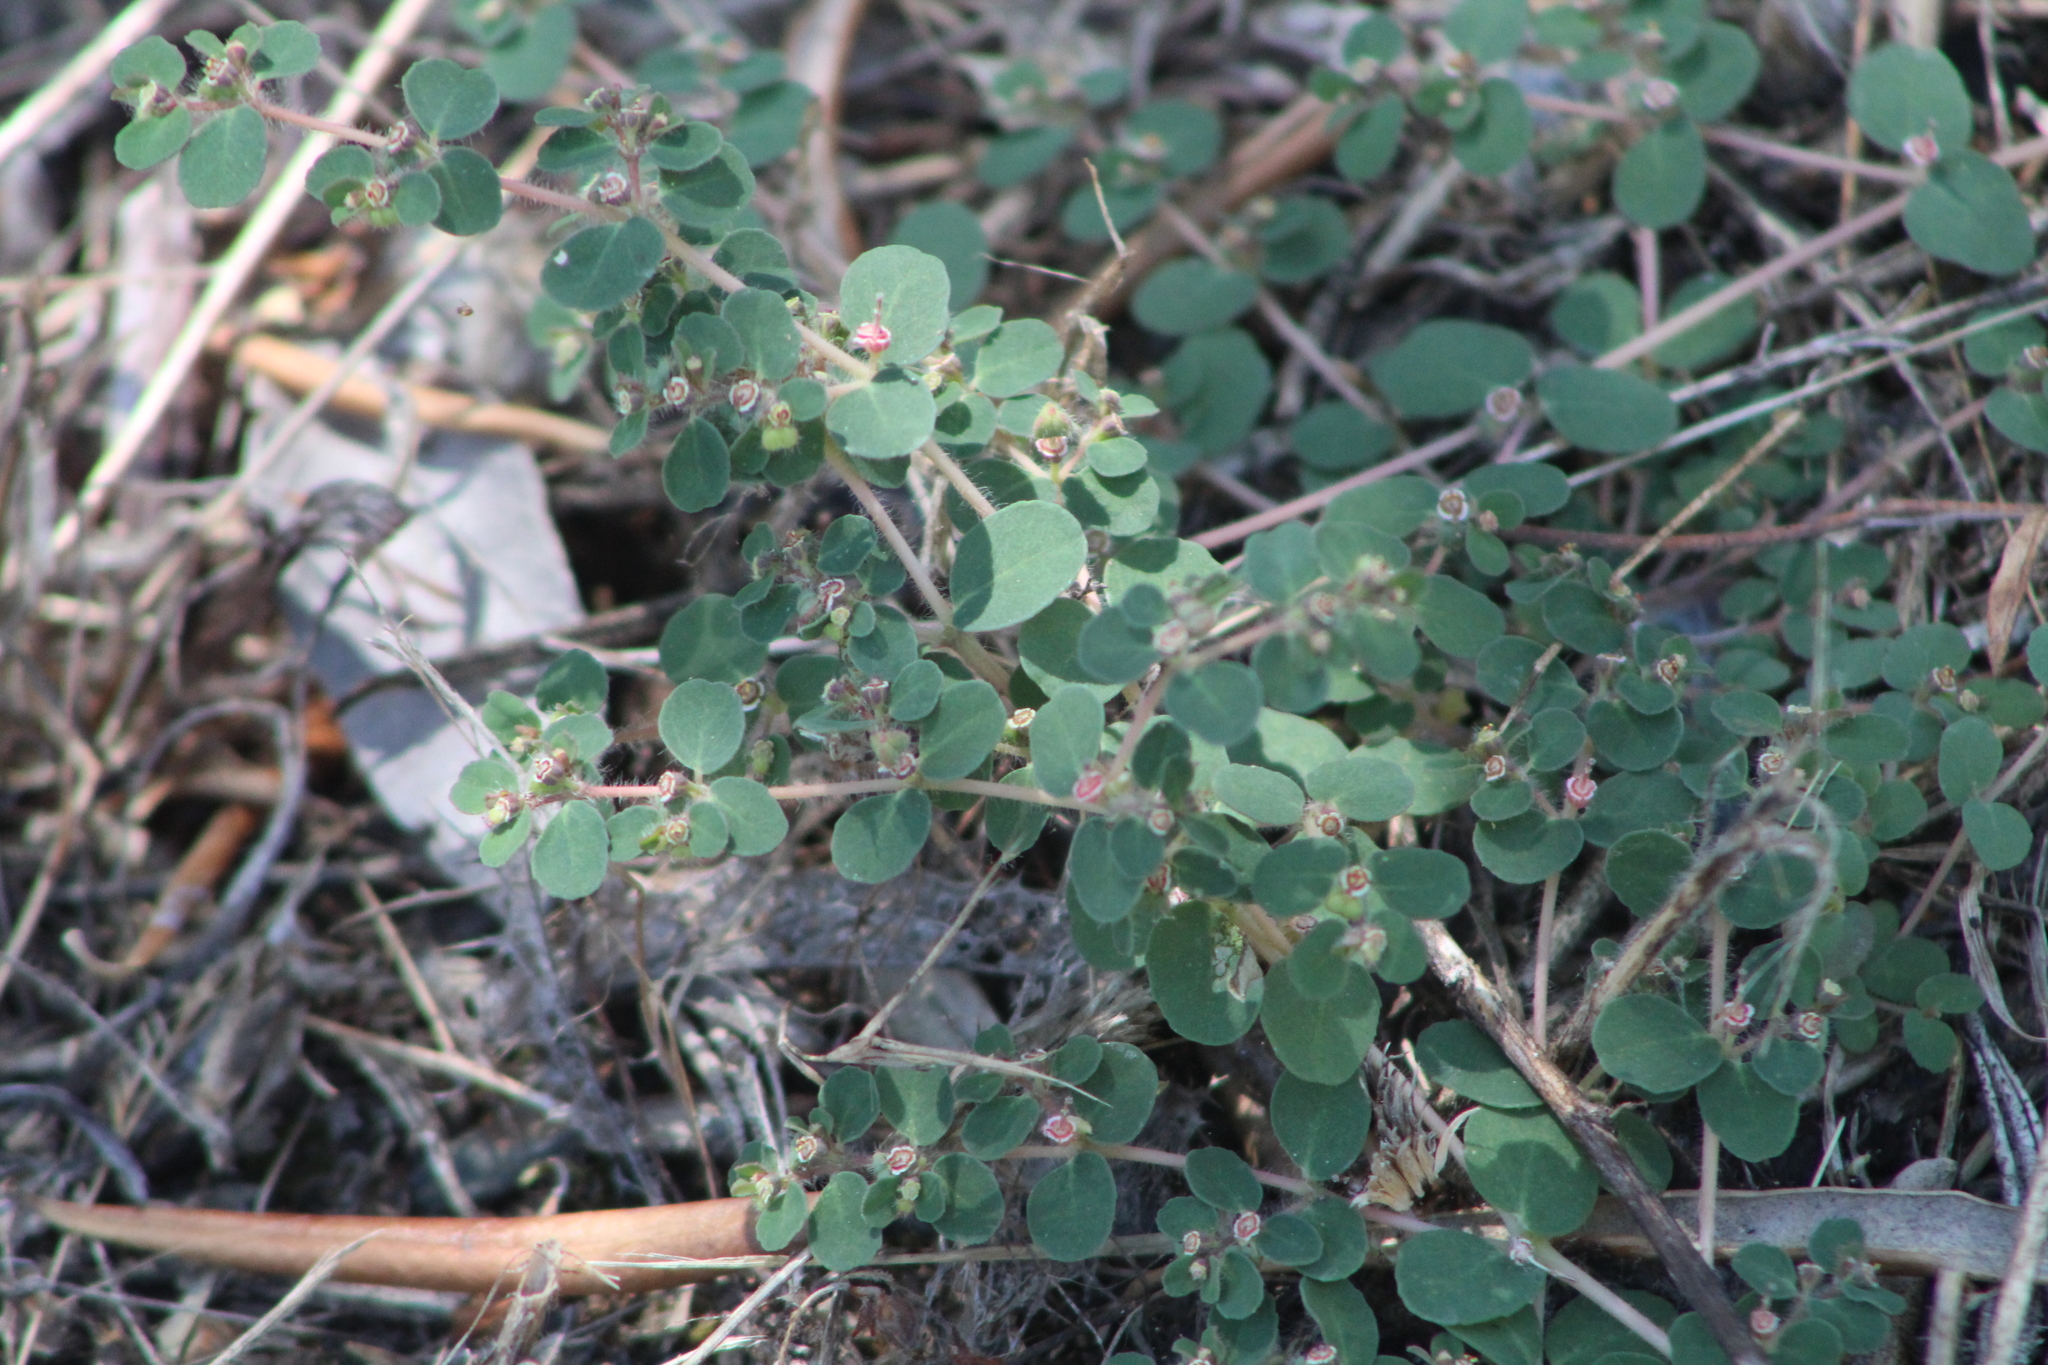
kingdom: Plantae
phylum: Tracheophyta
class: Magnoliopsida
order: Malpighiales
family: Euphorbiaceae
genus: Euphorbia
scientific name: Euphorbia chamaesyce
